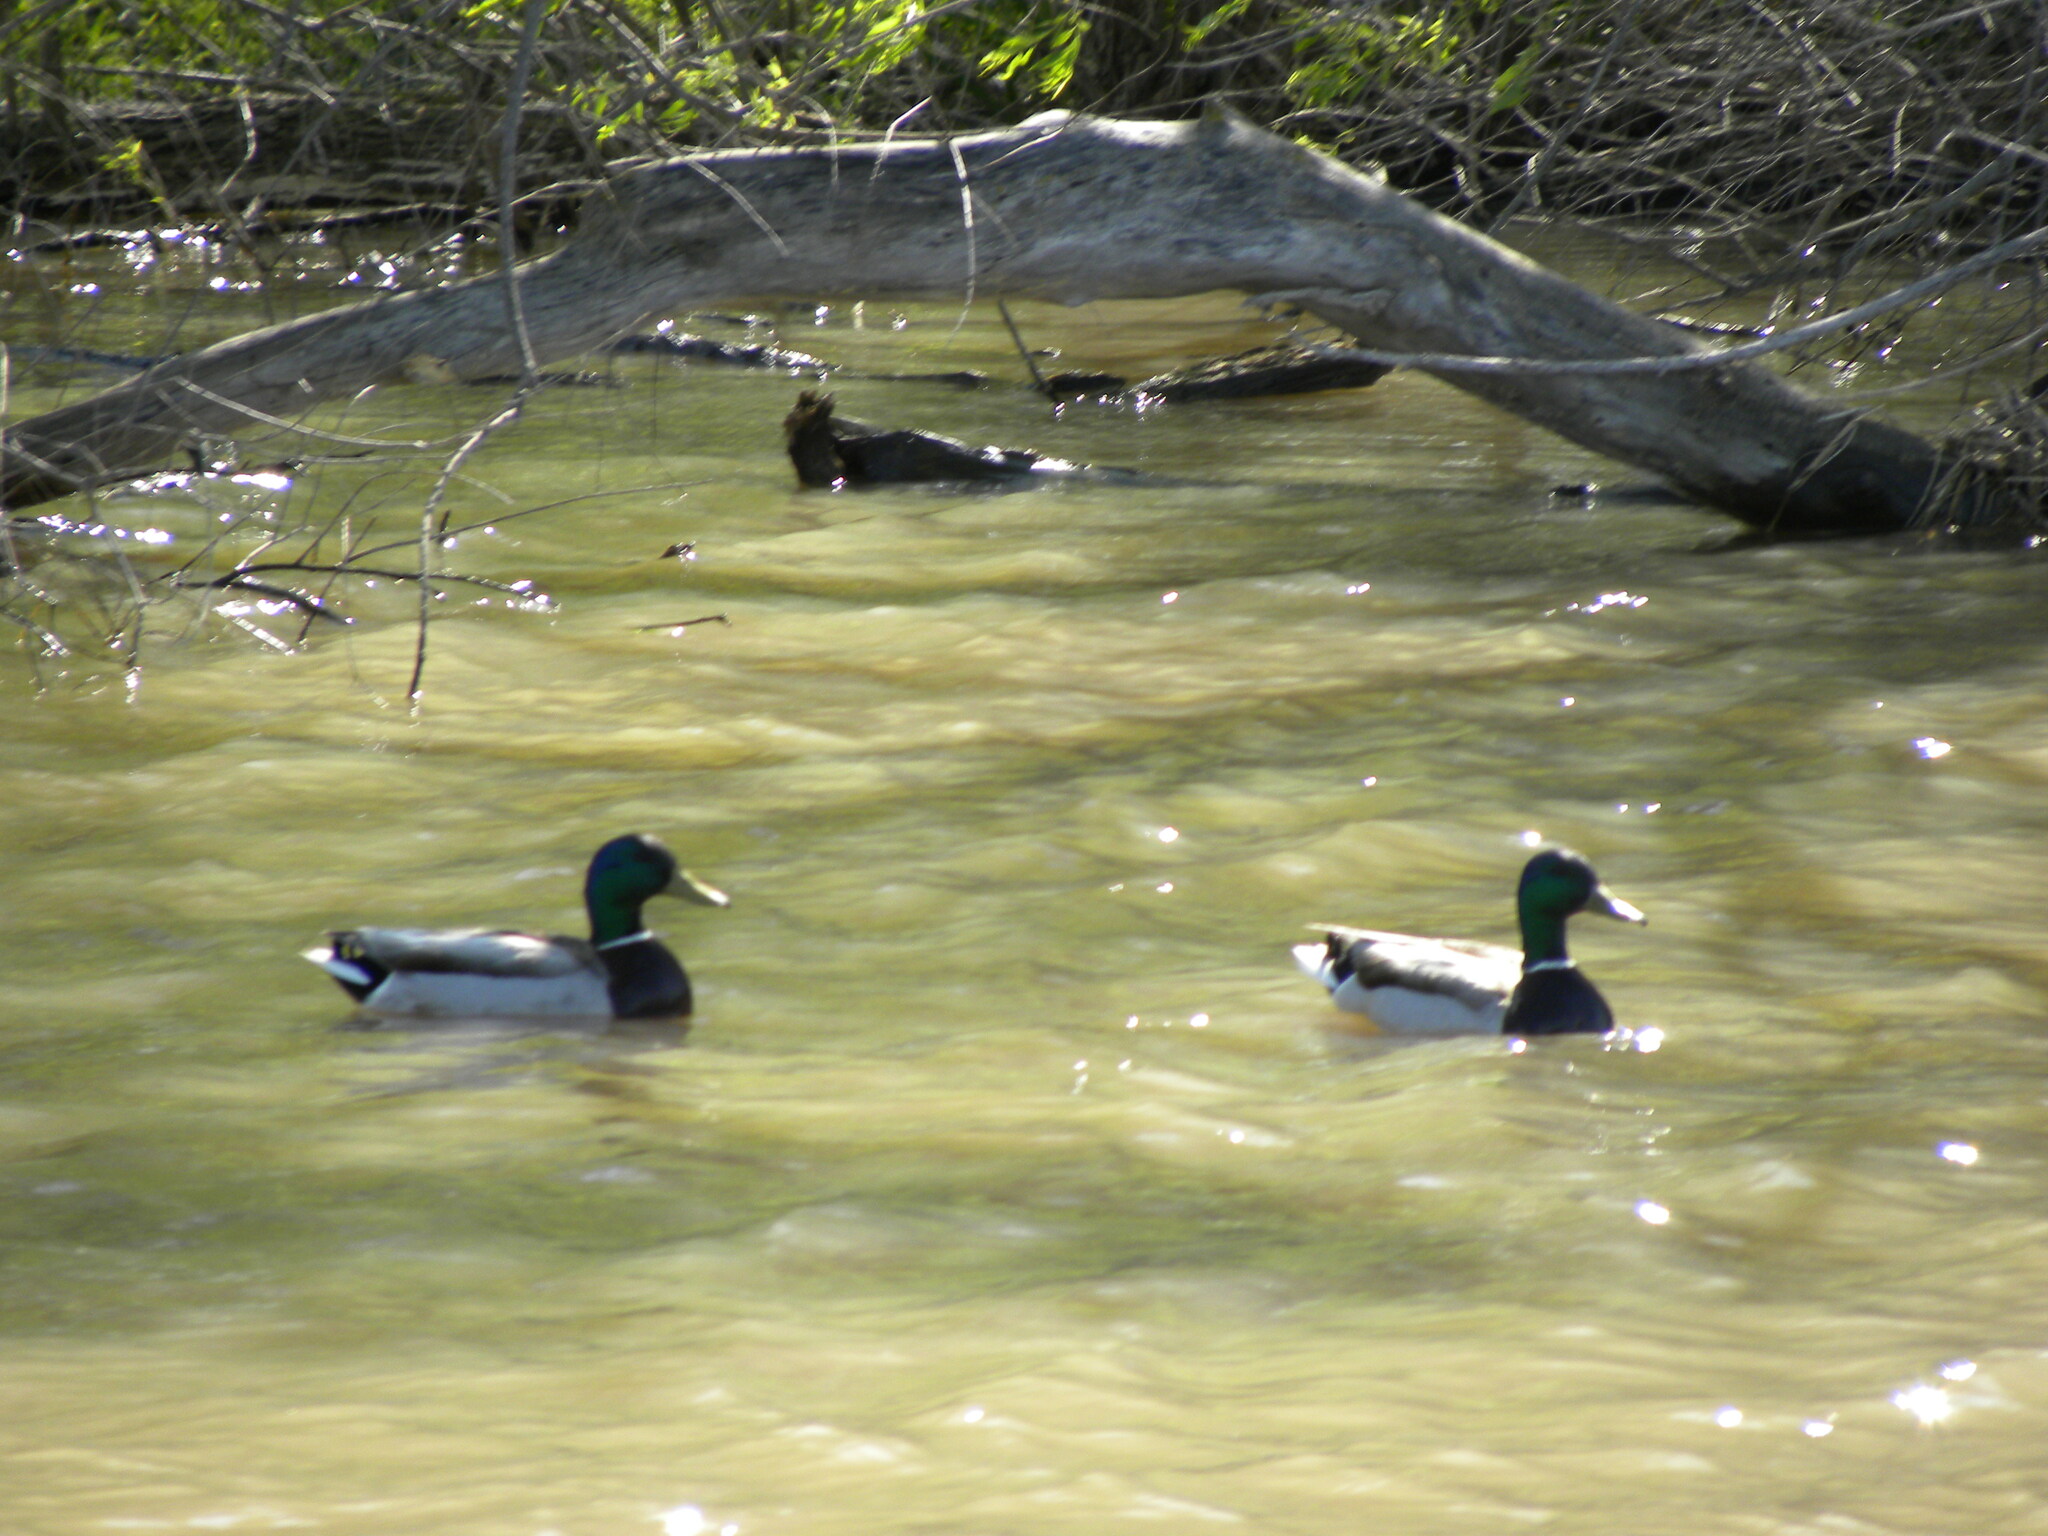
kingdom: Animalia
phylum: Chordata
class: Aves
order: Anseriformes
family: Anatidae
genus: Anas
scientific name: Anas platyrhynchos
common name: Mallard
